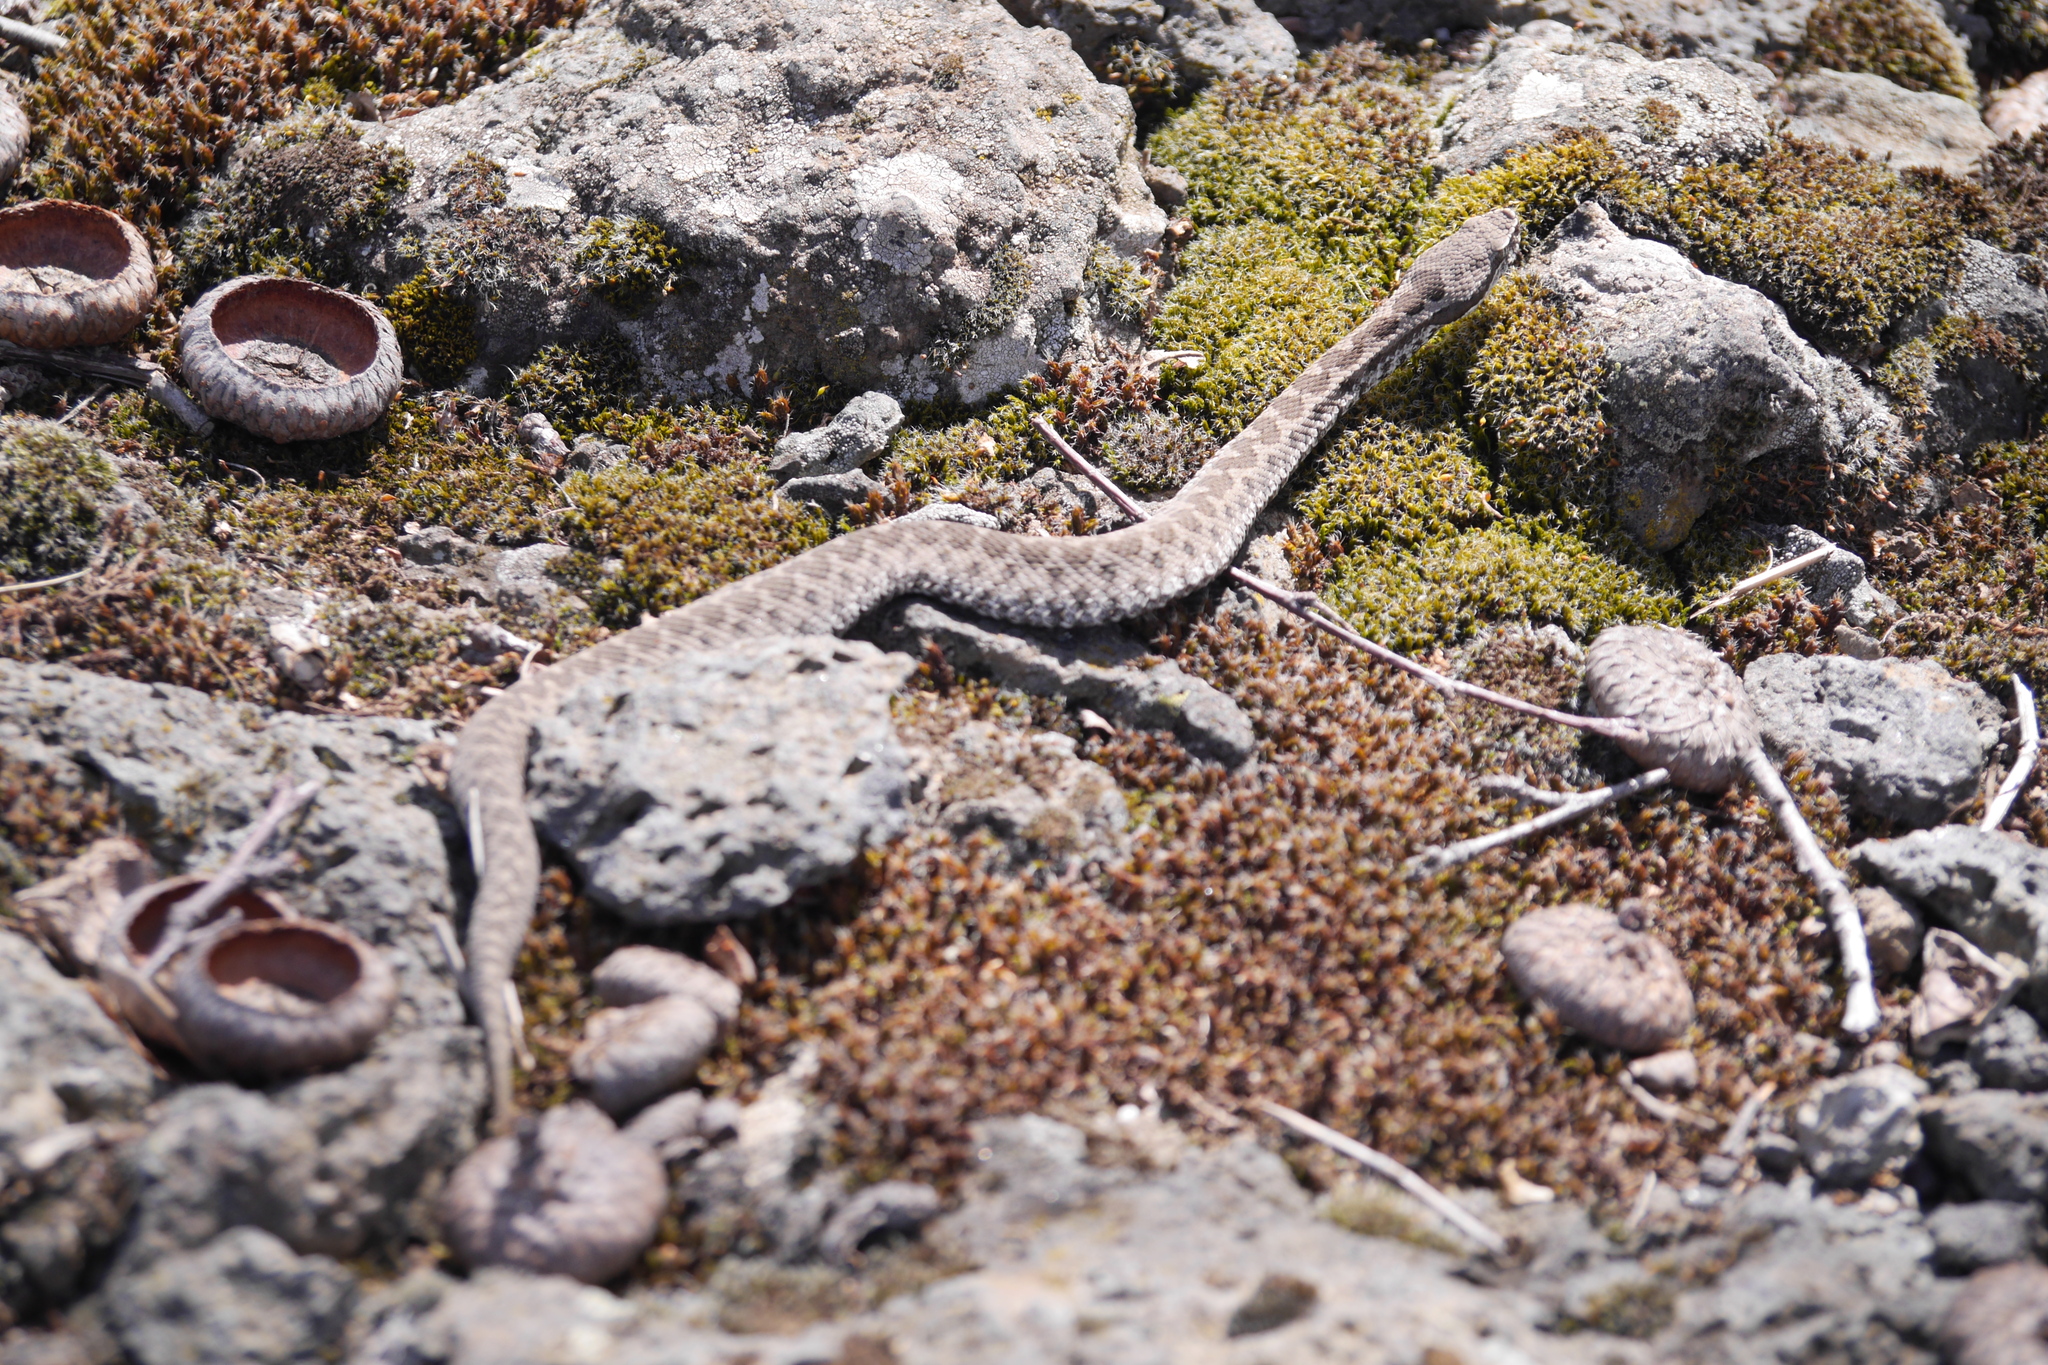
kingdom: Animalia
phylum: Chordata
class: Squamata
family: Viperidae
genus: Vipera
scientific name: Vipera aspis
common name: Asp viper
